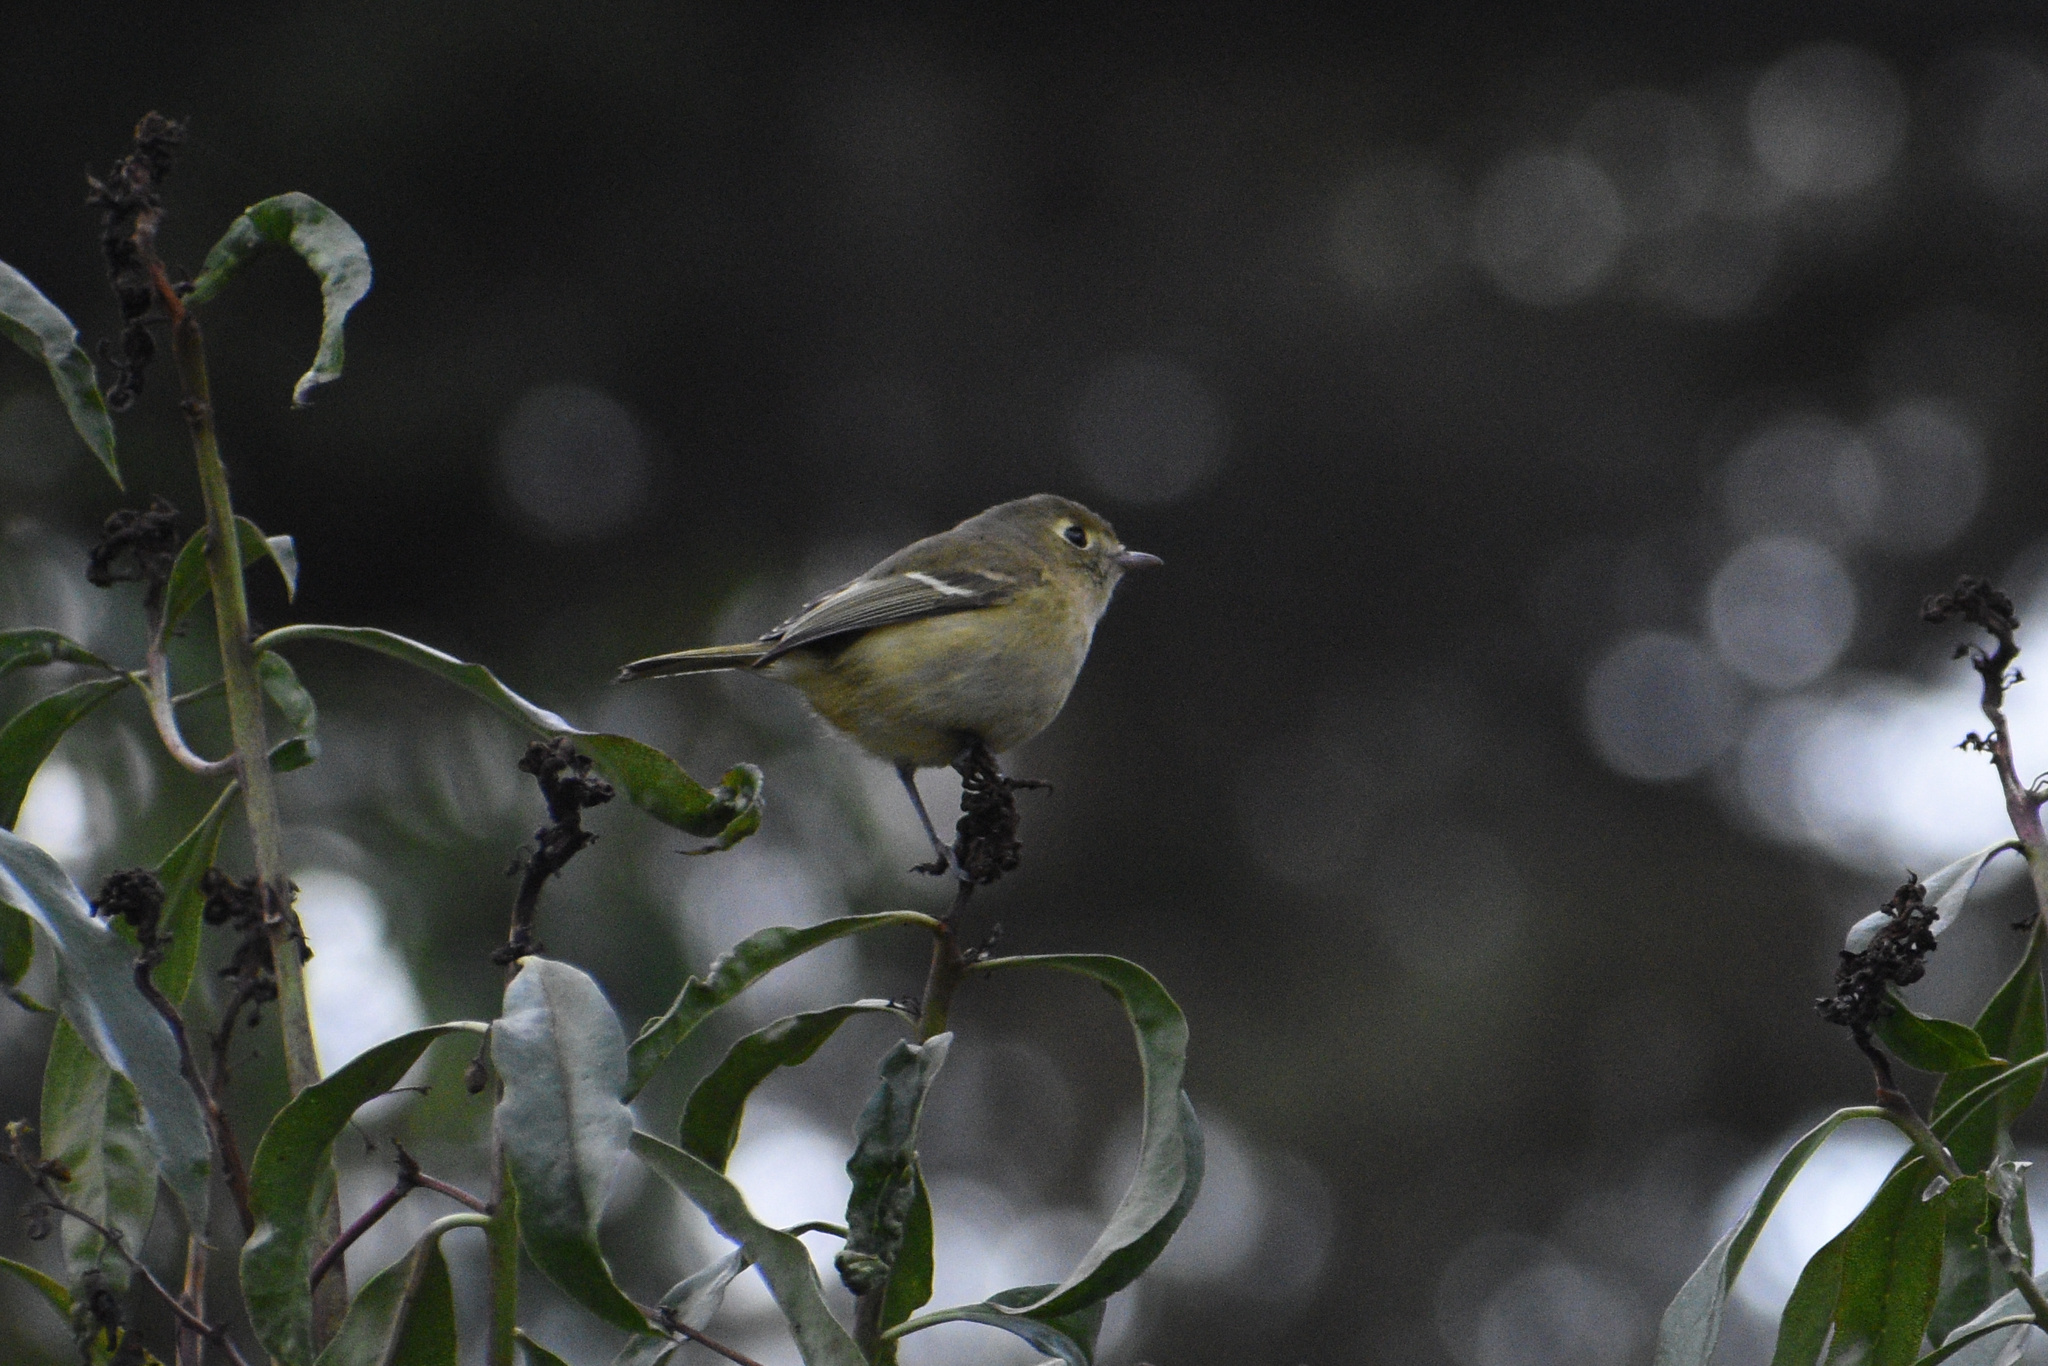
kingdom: Animalia
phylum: Chordata
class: Aves
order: Passeriformes
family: Vireonidae
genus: Vireo
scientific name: Vireo huttoni
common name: Hutton's vireo
